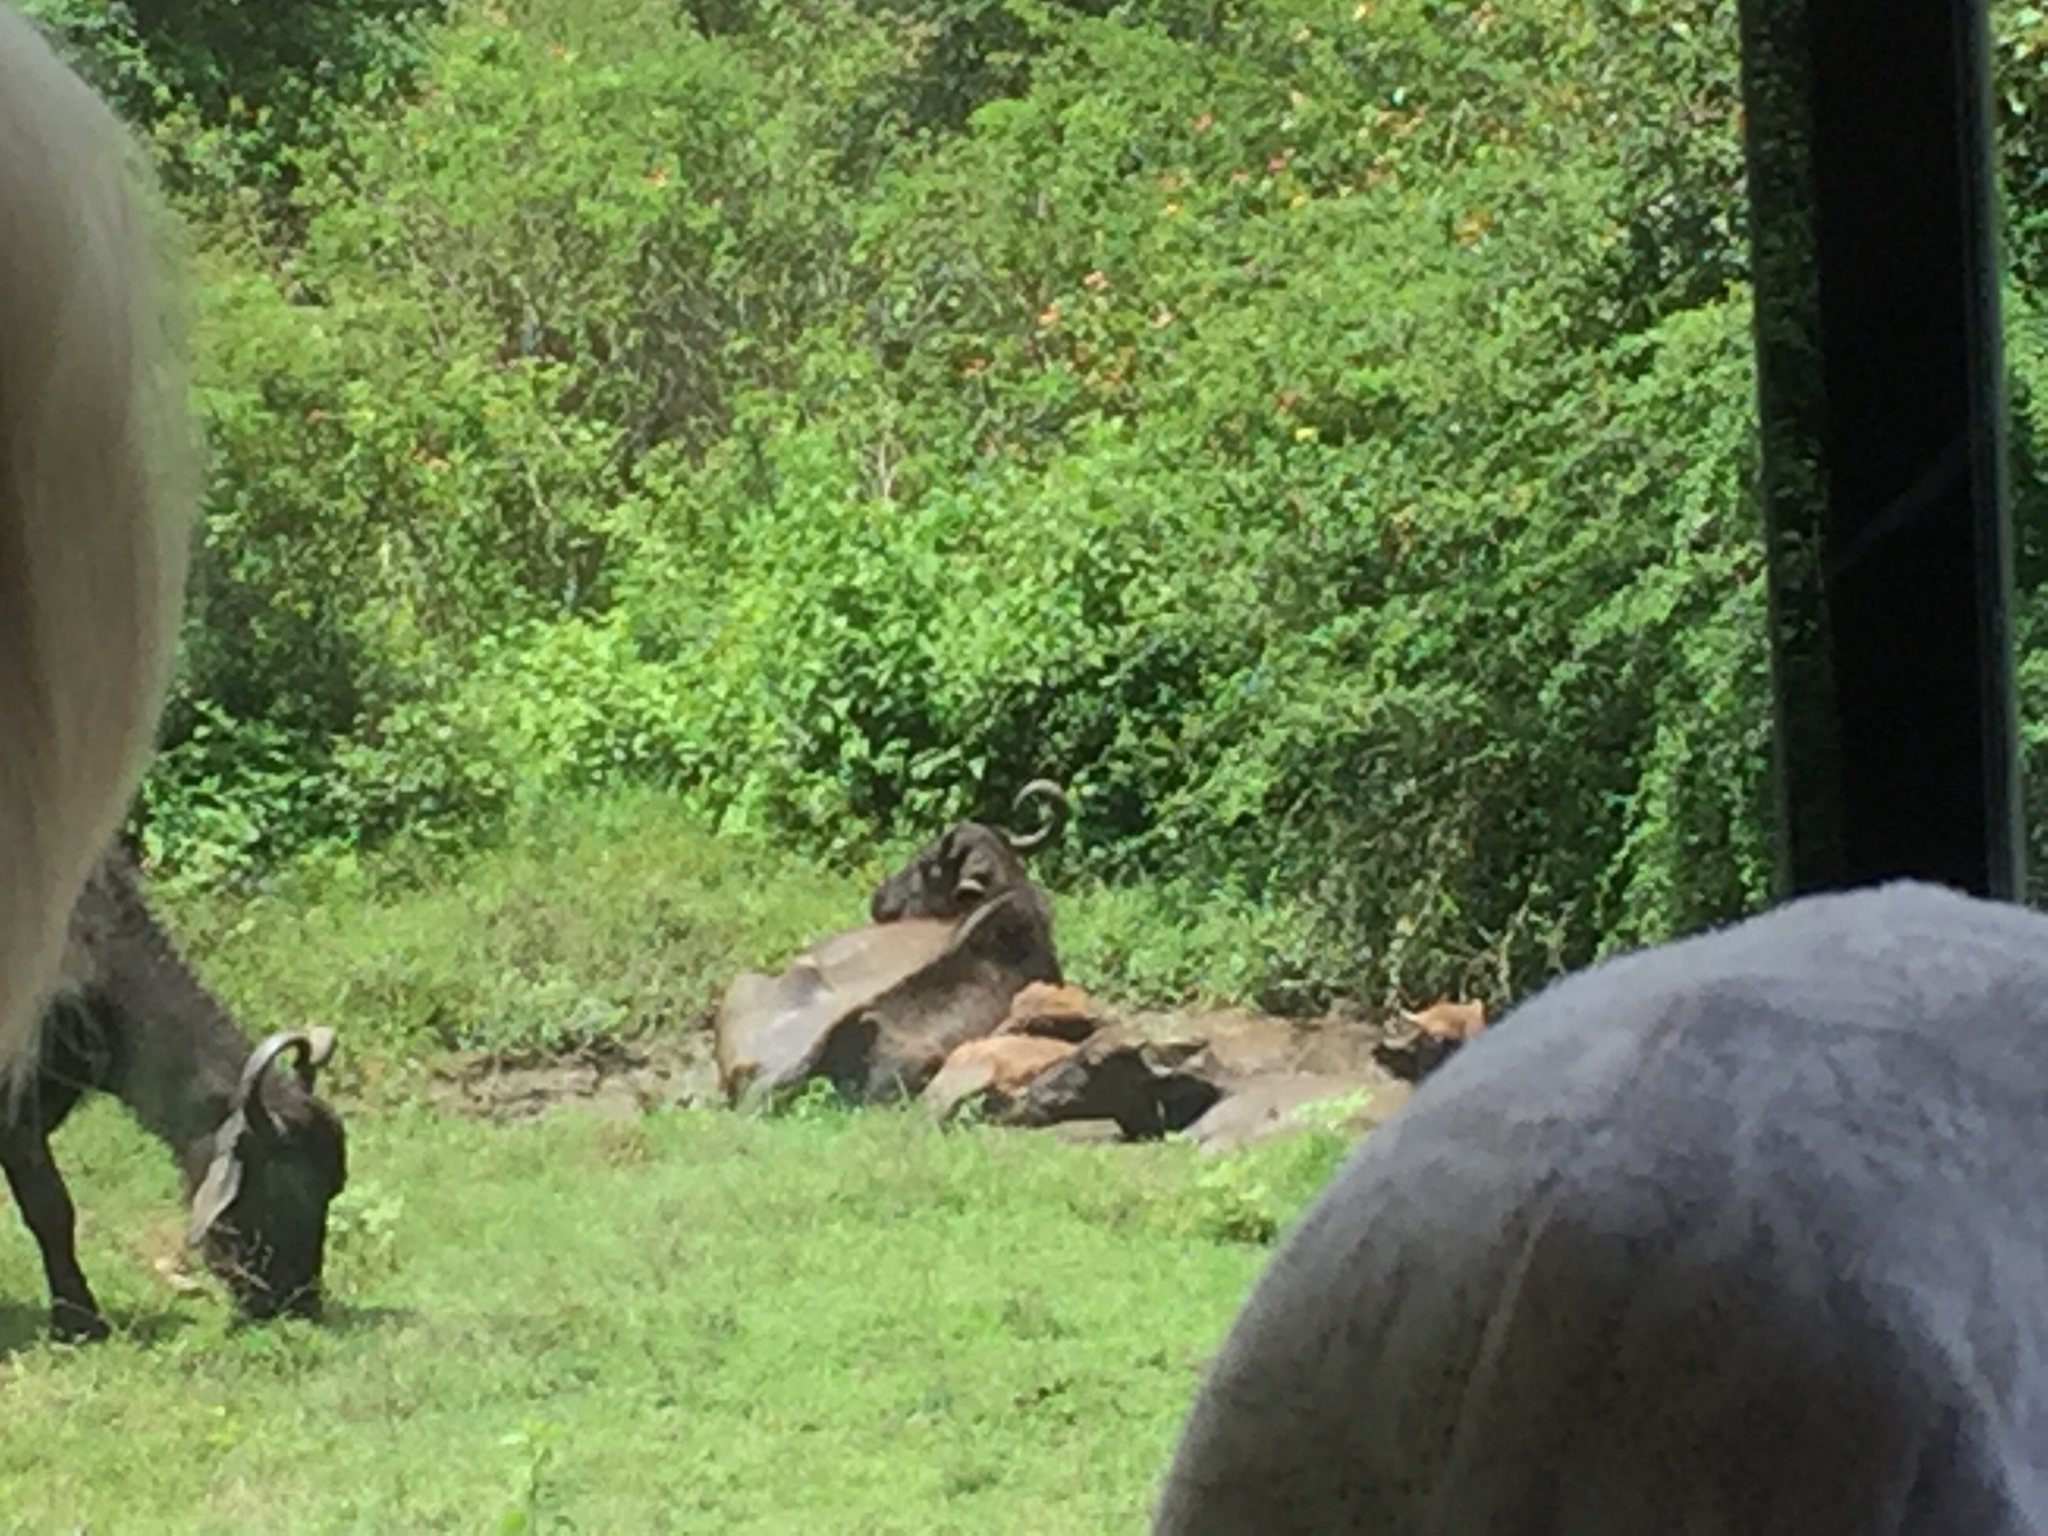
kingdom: Animalia
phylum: Chordata
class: Mammalia
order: Artiodactyla
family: Bovidae
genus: Bubalus
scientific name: Bubalus bubalis
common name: Water buffalo
